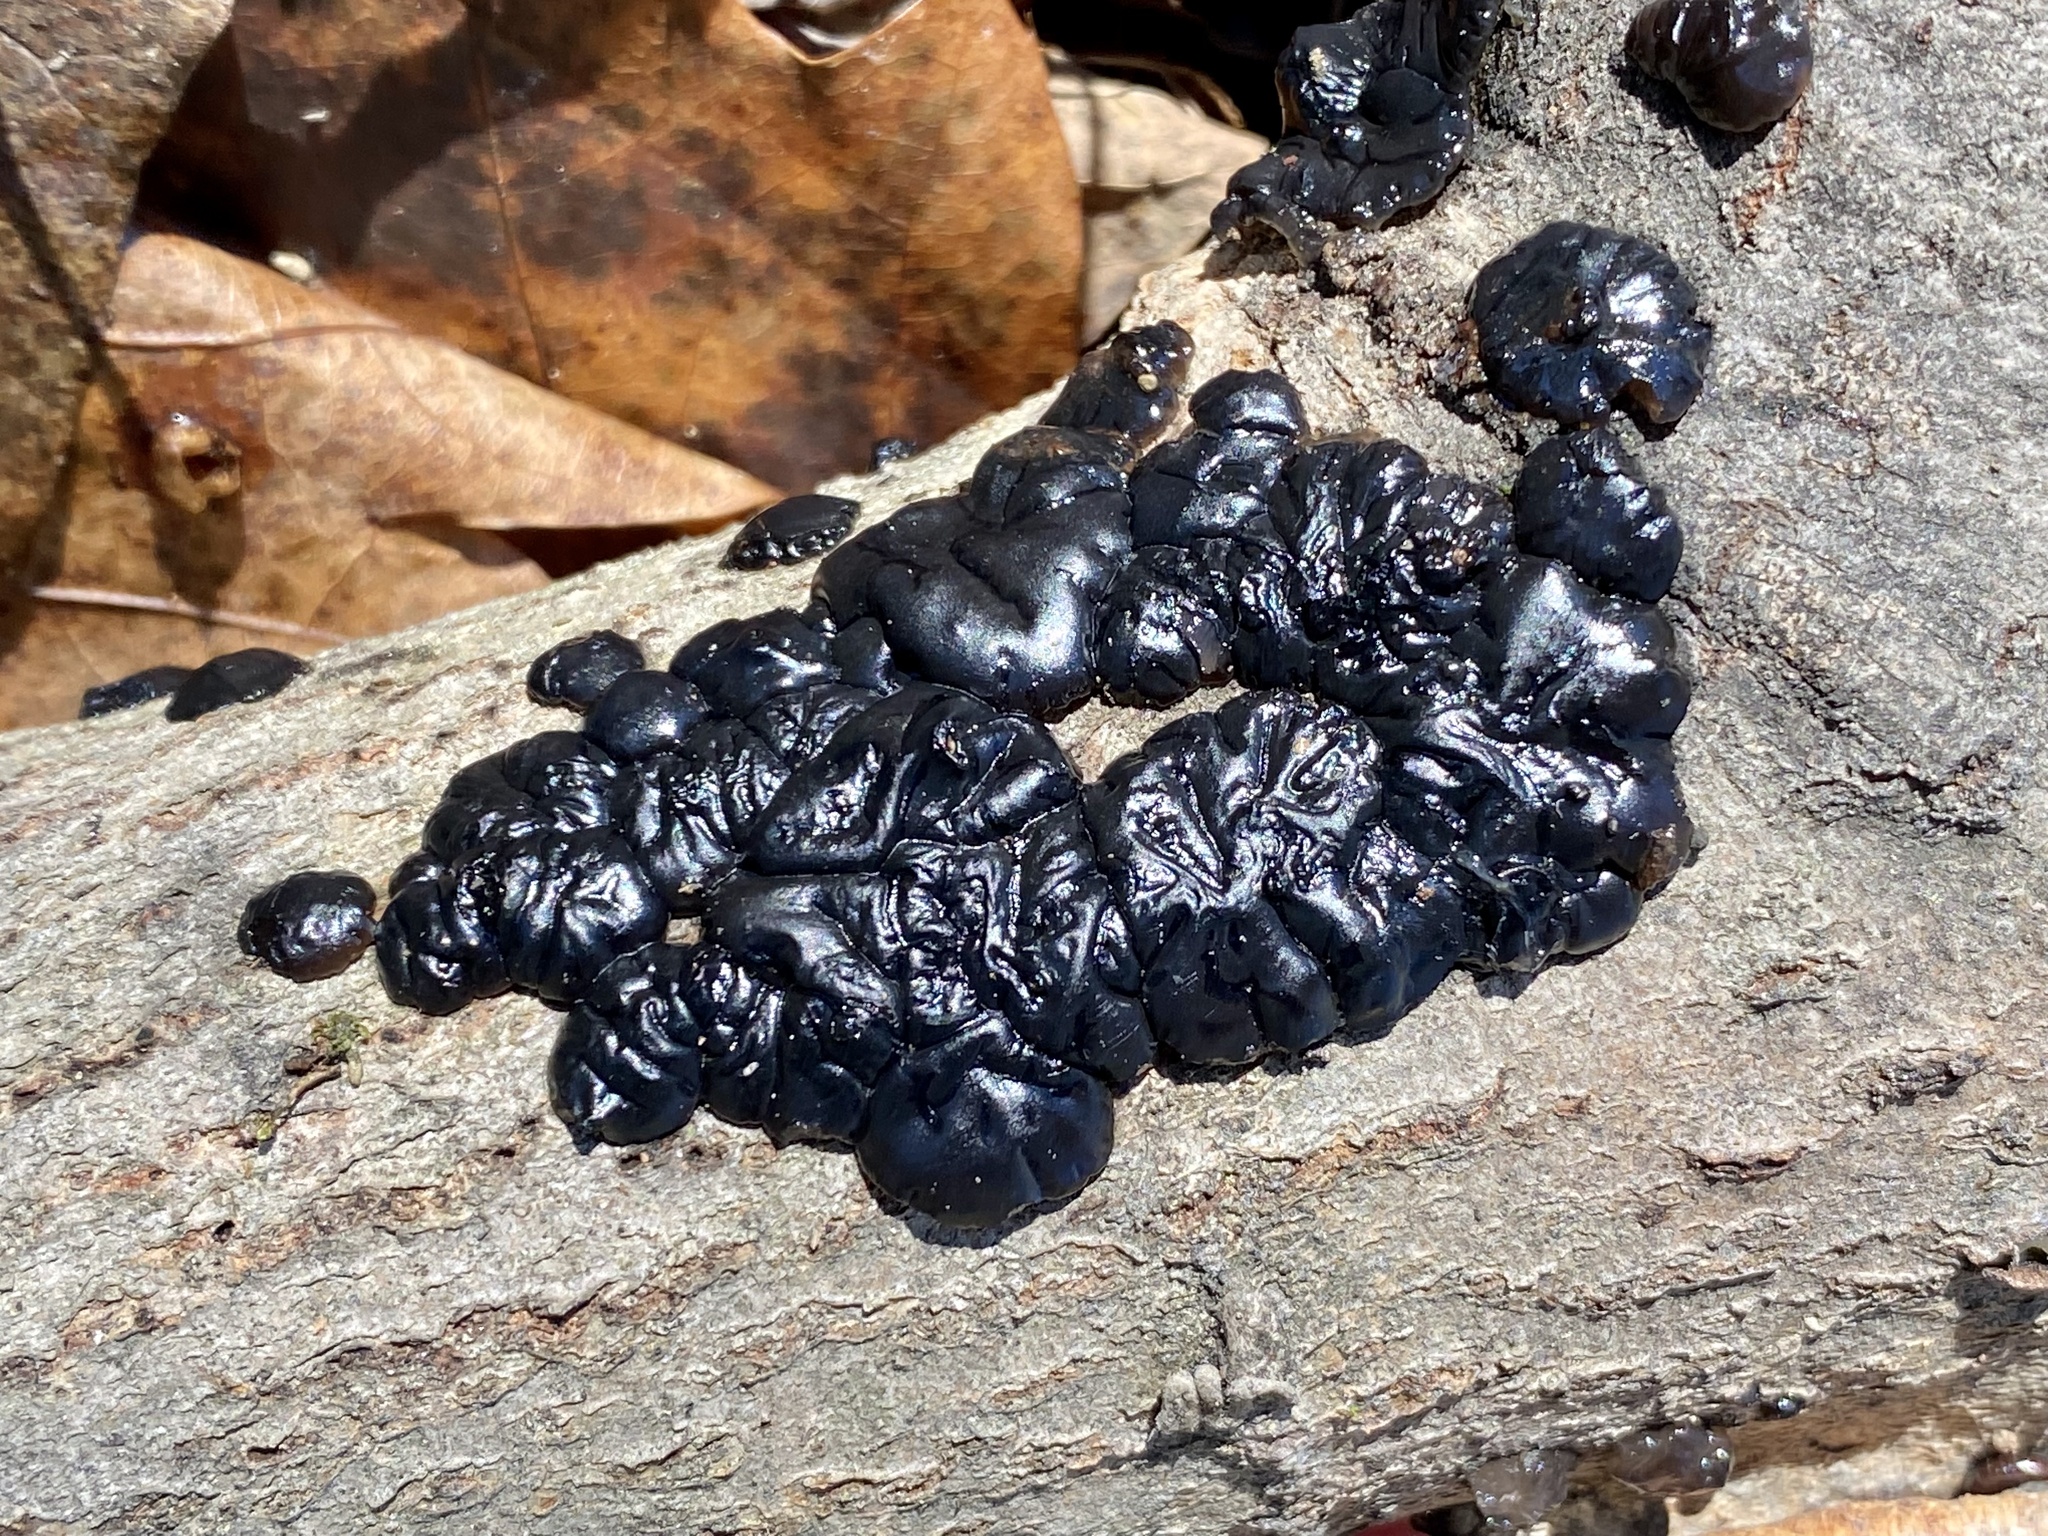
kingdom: Fungi
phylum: Basidiomycota
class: Agaricomycetes
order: Auriculariales
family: Auriculariaceae
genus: Exidia
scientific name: Exidia glandulosa
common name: Witches' butter
